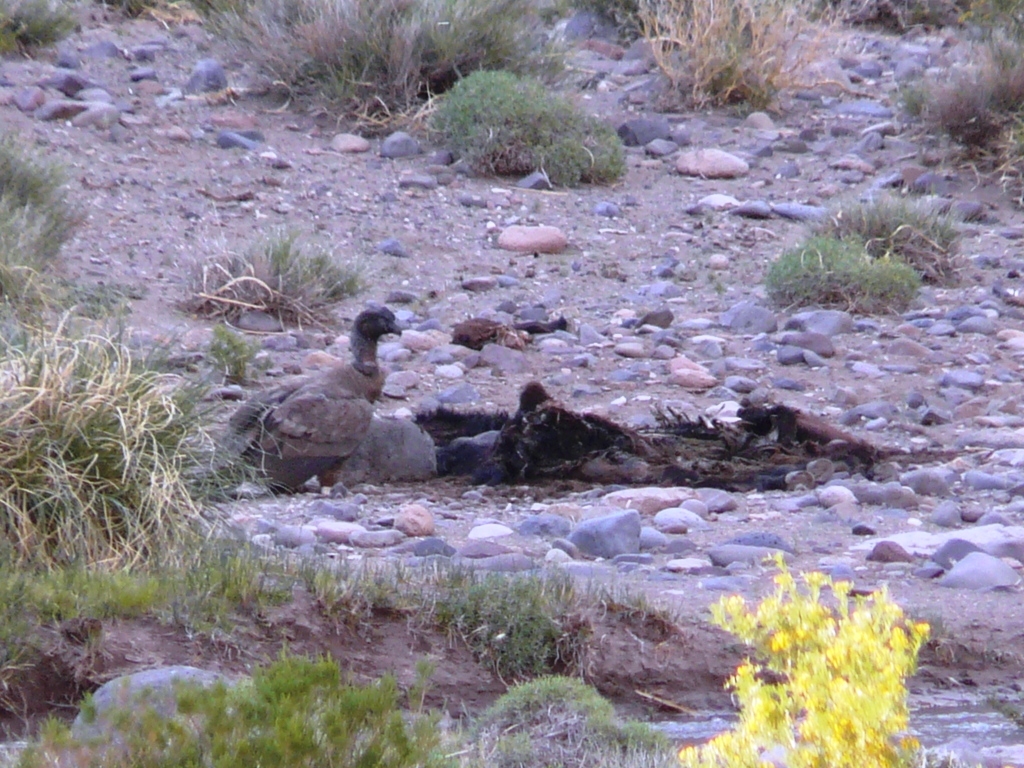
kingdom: Animalia
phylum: Chordata
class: Aves
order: Accipitriformes
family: Cathartidae
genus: Vultur
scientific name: Vultur gryphus
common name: Andean condor
